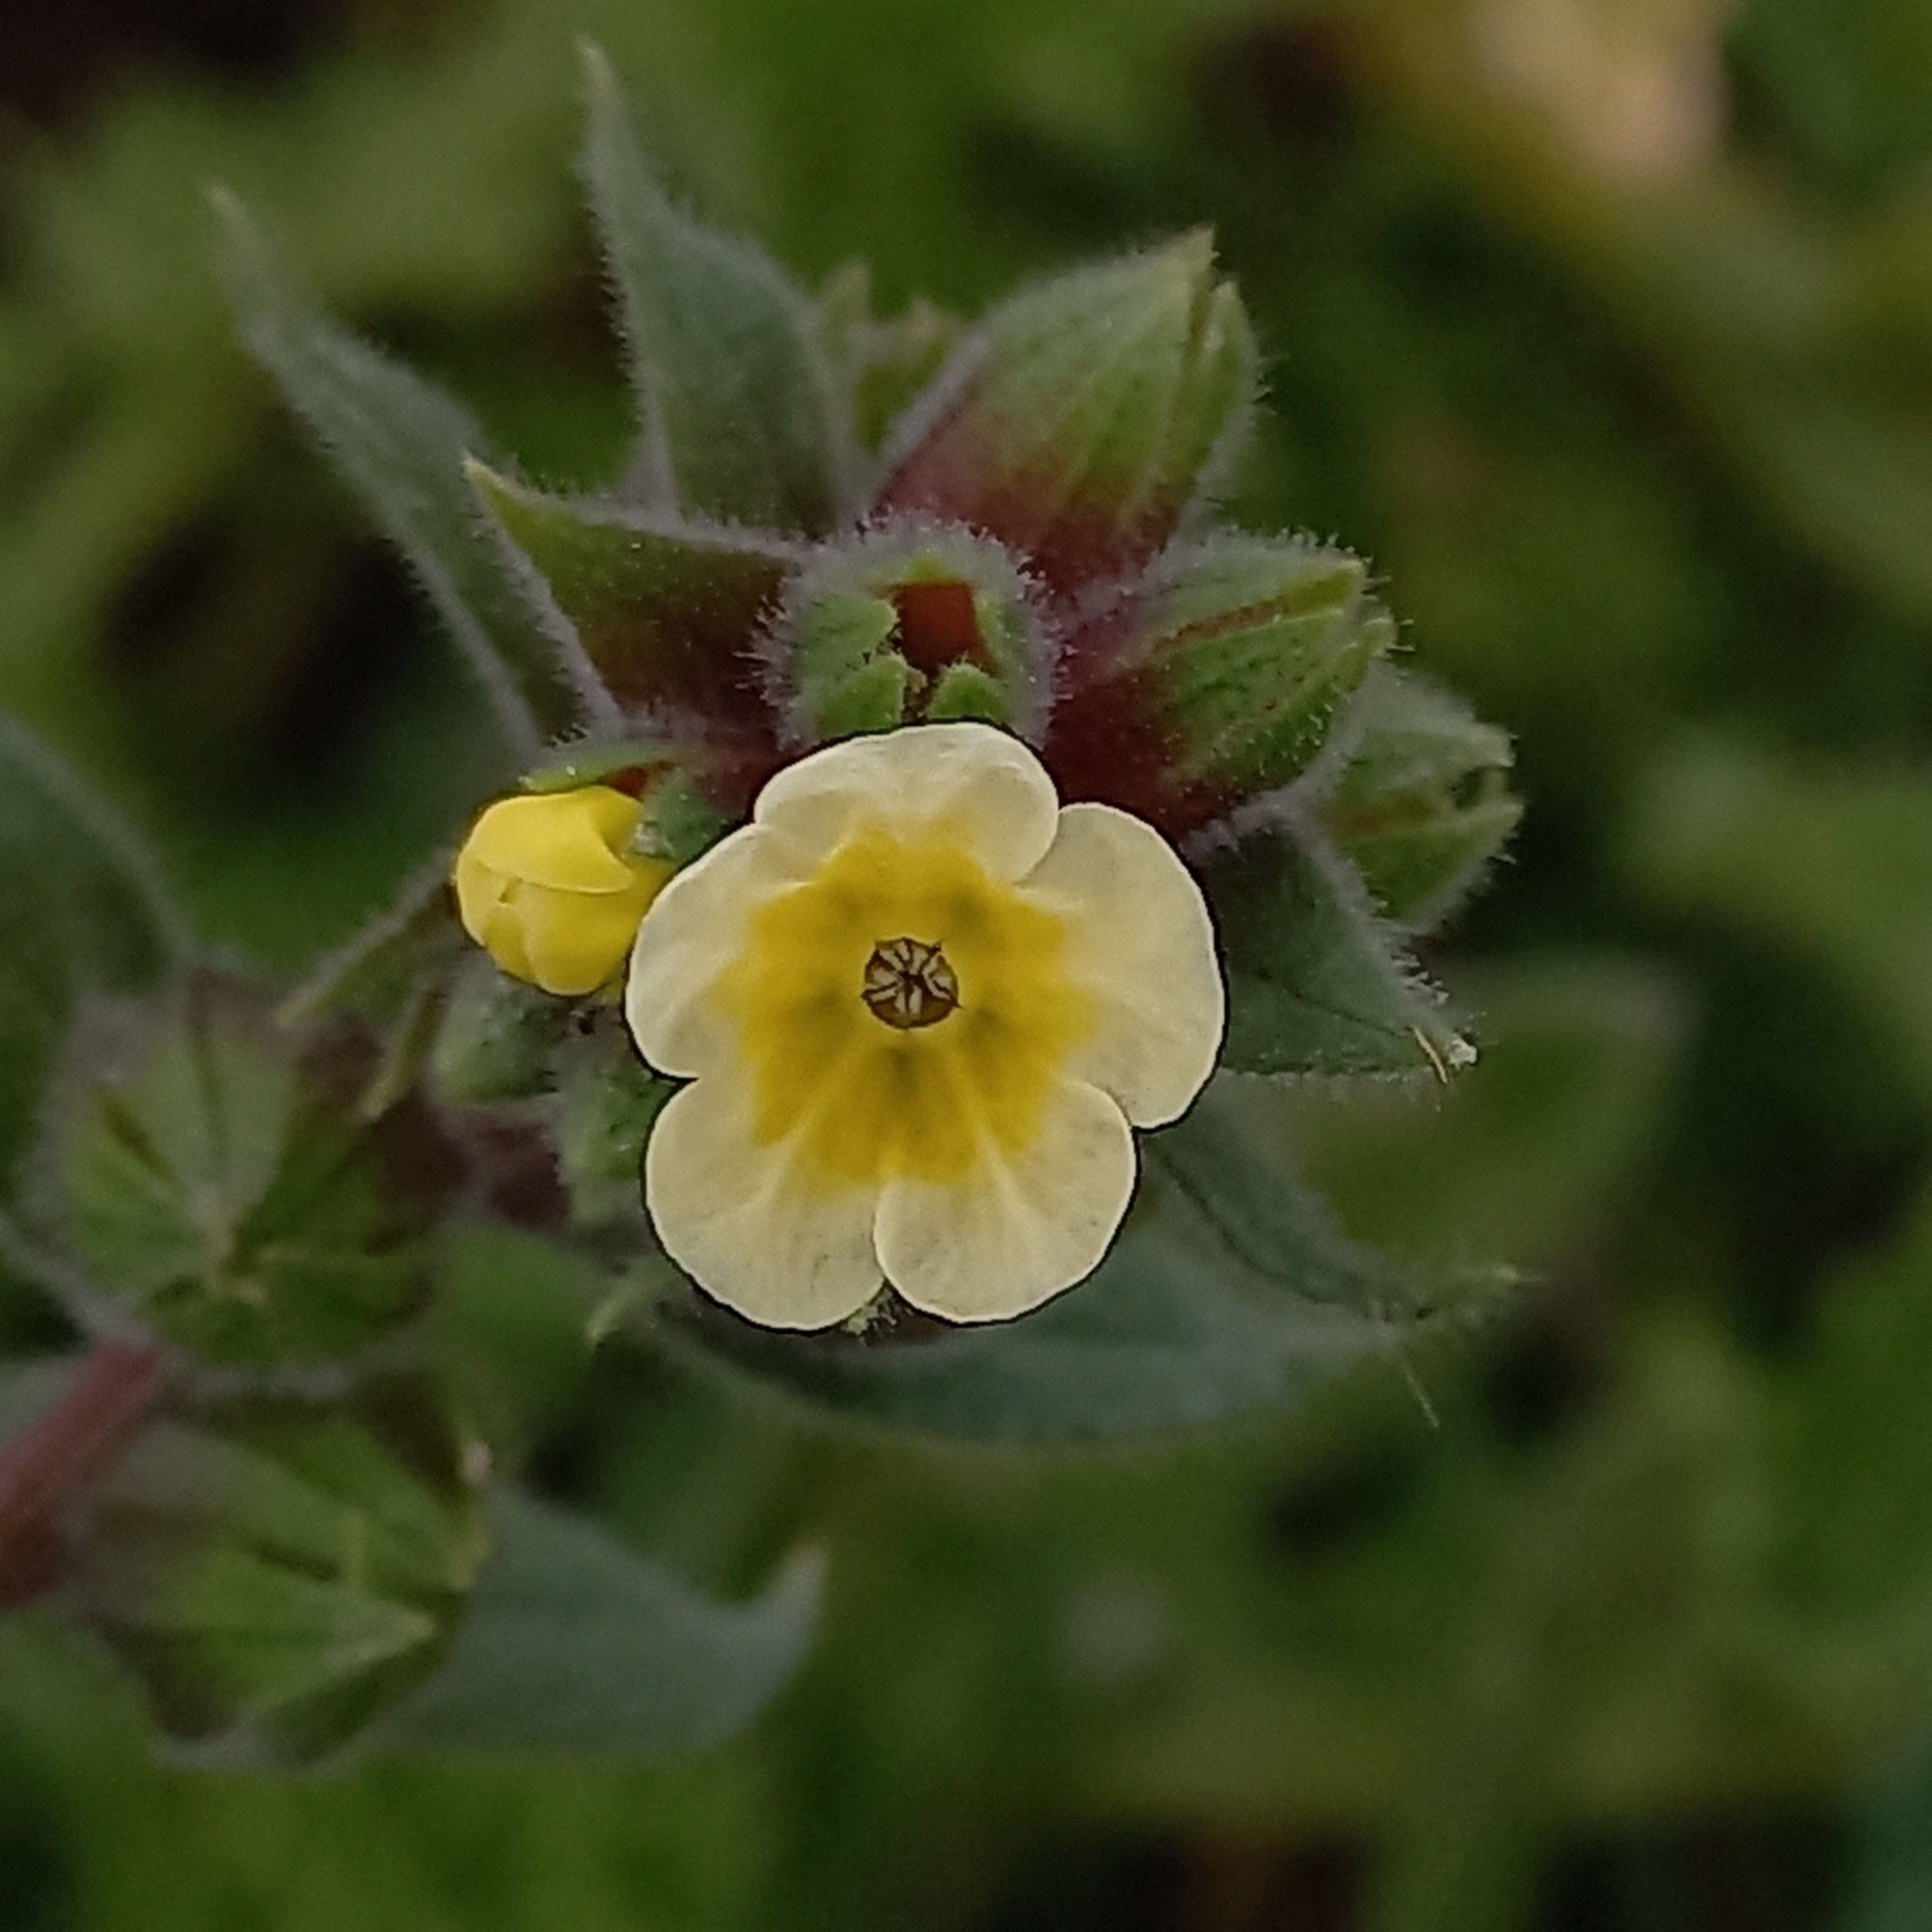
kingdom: Plantae
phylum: Tracheophyta
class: Magnoliopsida
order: Boraginales
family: Boraginaceae
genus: Nonea
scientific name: Nonea lutea
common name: Yellow nonea
